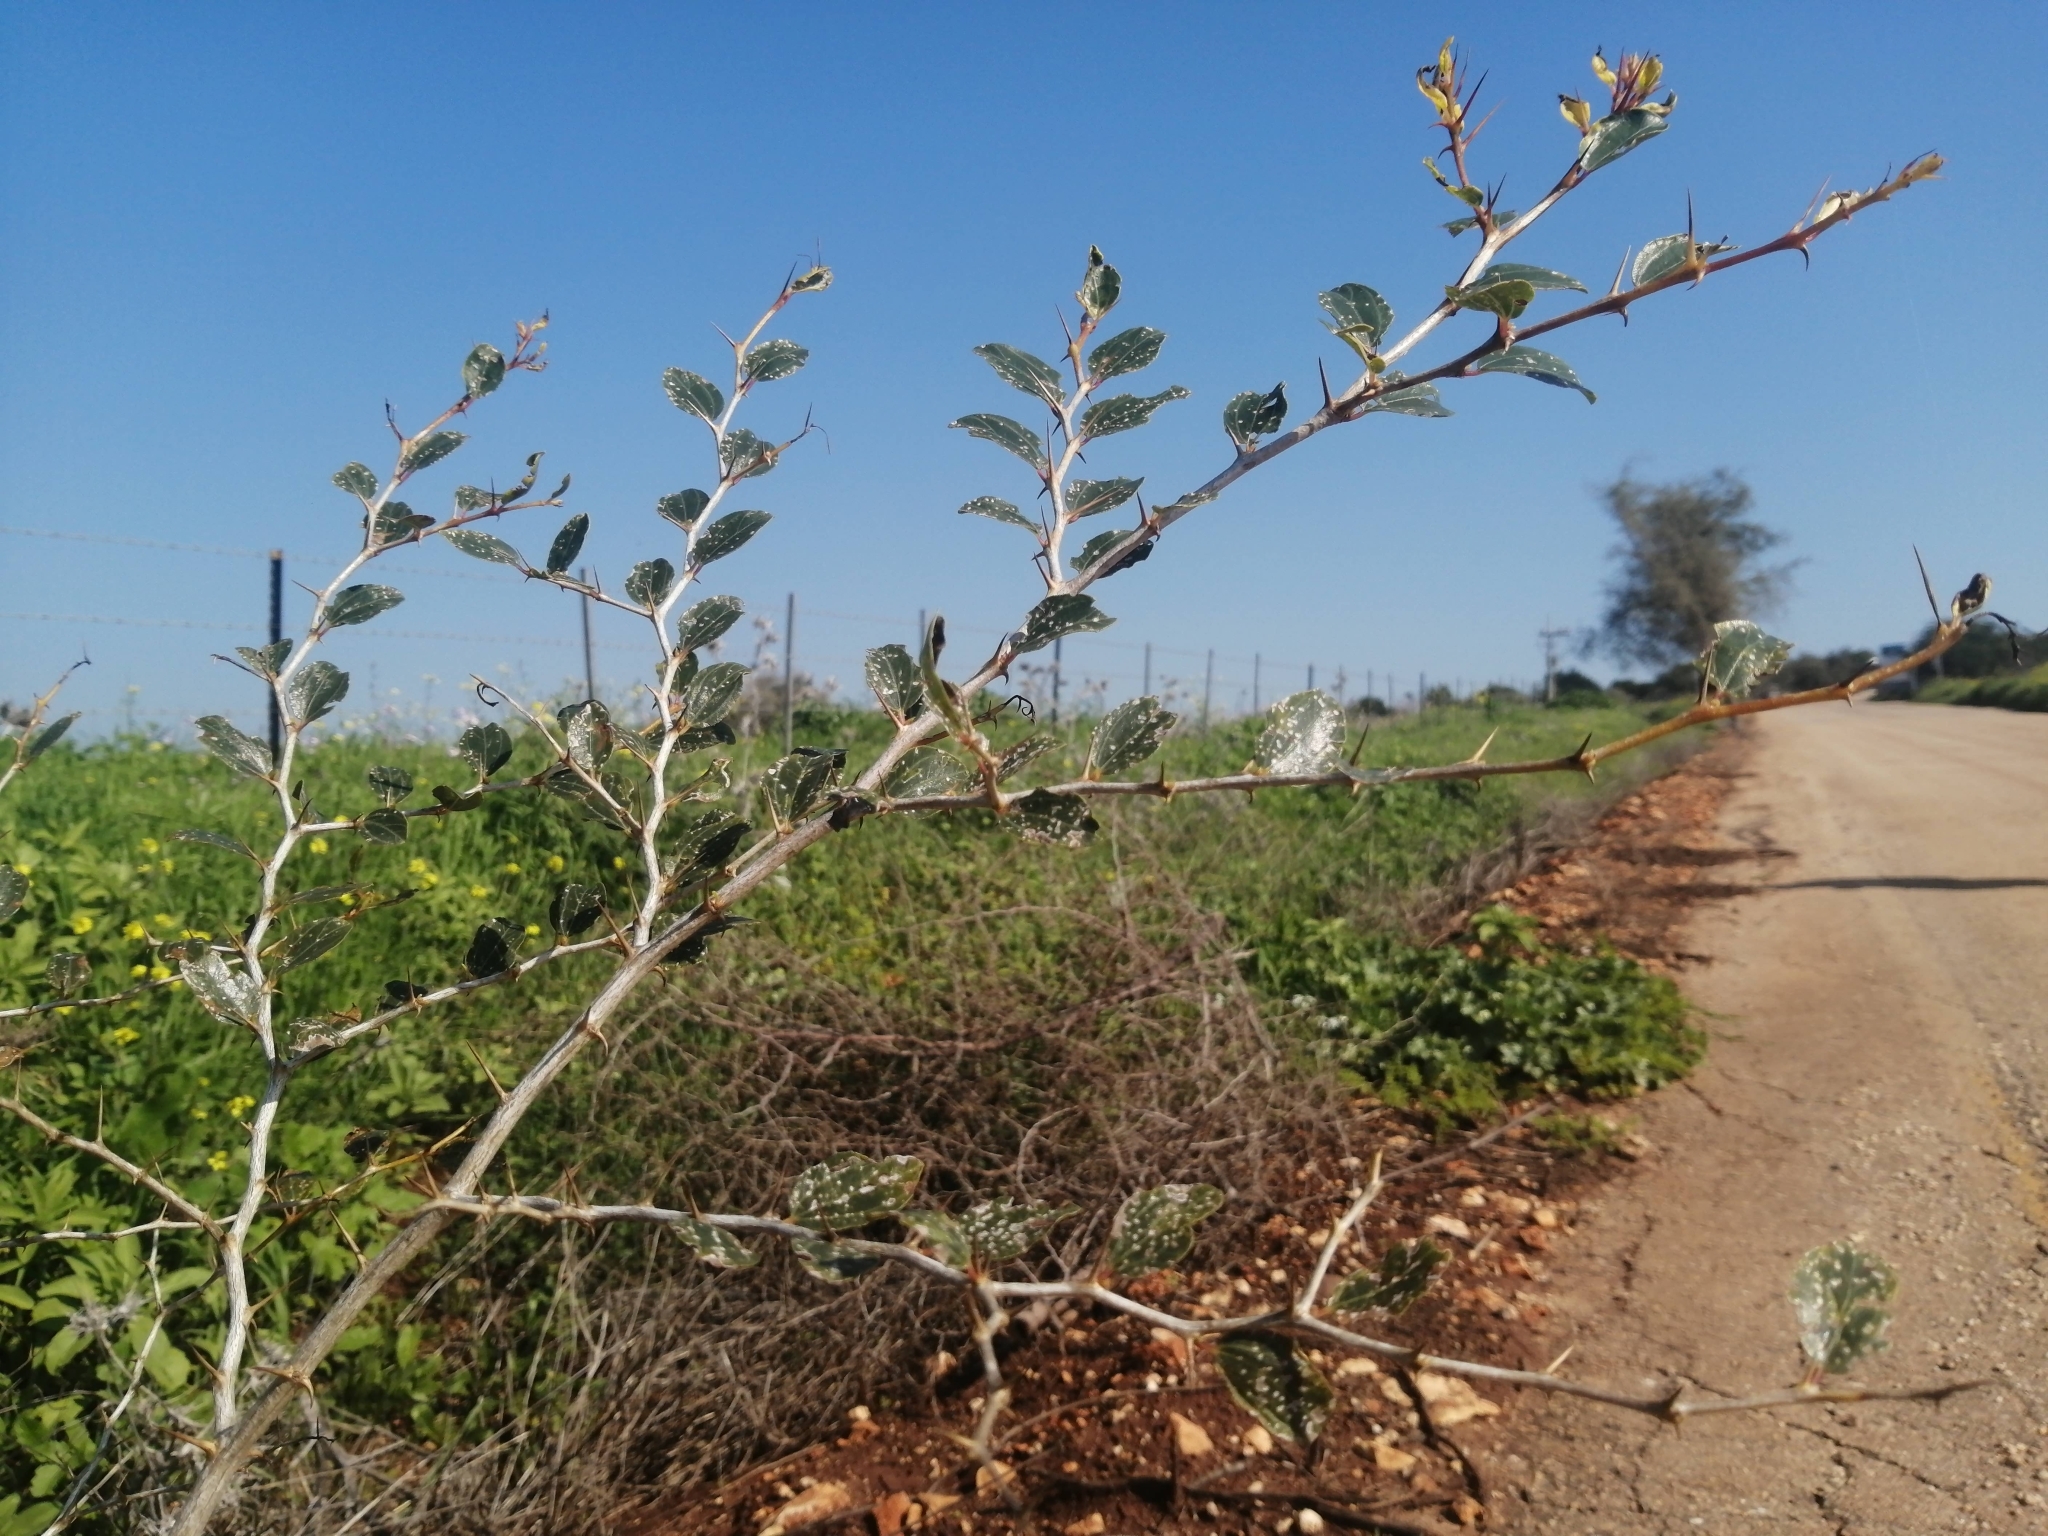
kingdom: Plantae
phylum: Tracheophyta
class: Magnoliopsida
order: Rosales
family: Rhamnaceae
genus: Ziziphus
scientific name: Ziziphus lotus
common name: Lotus
